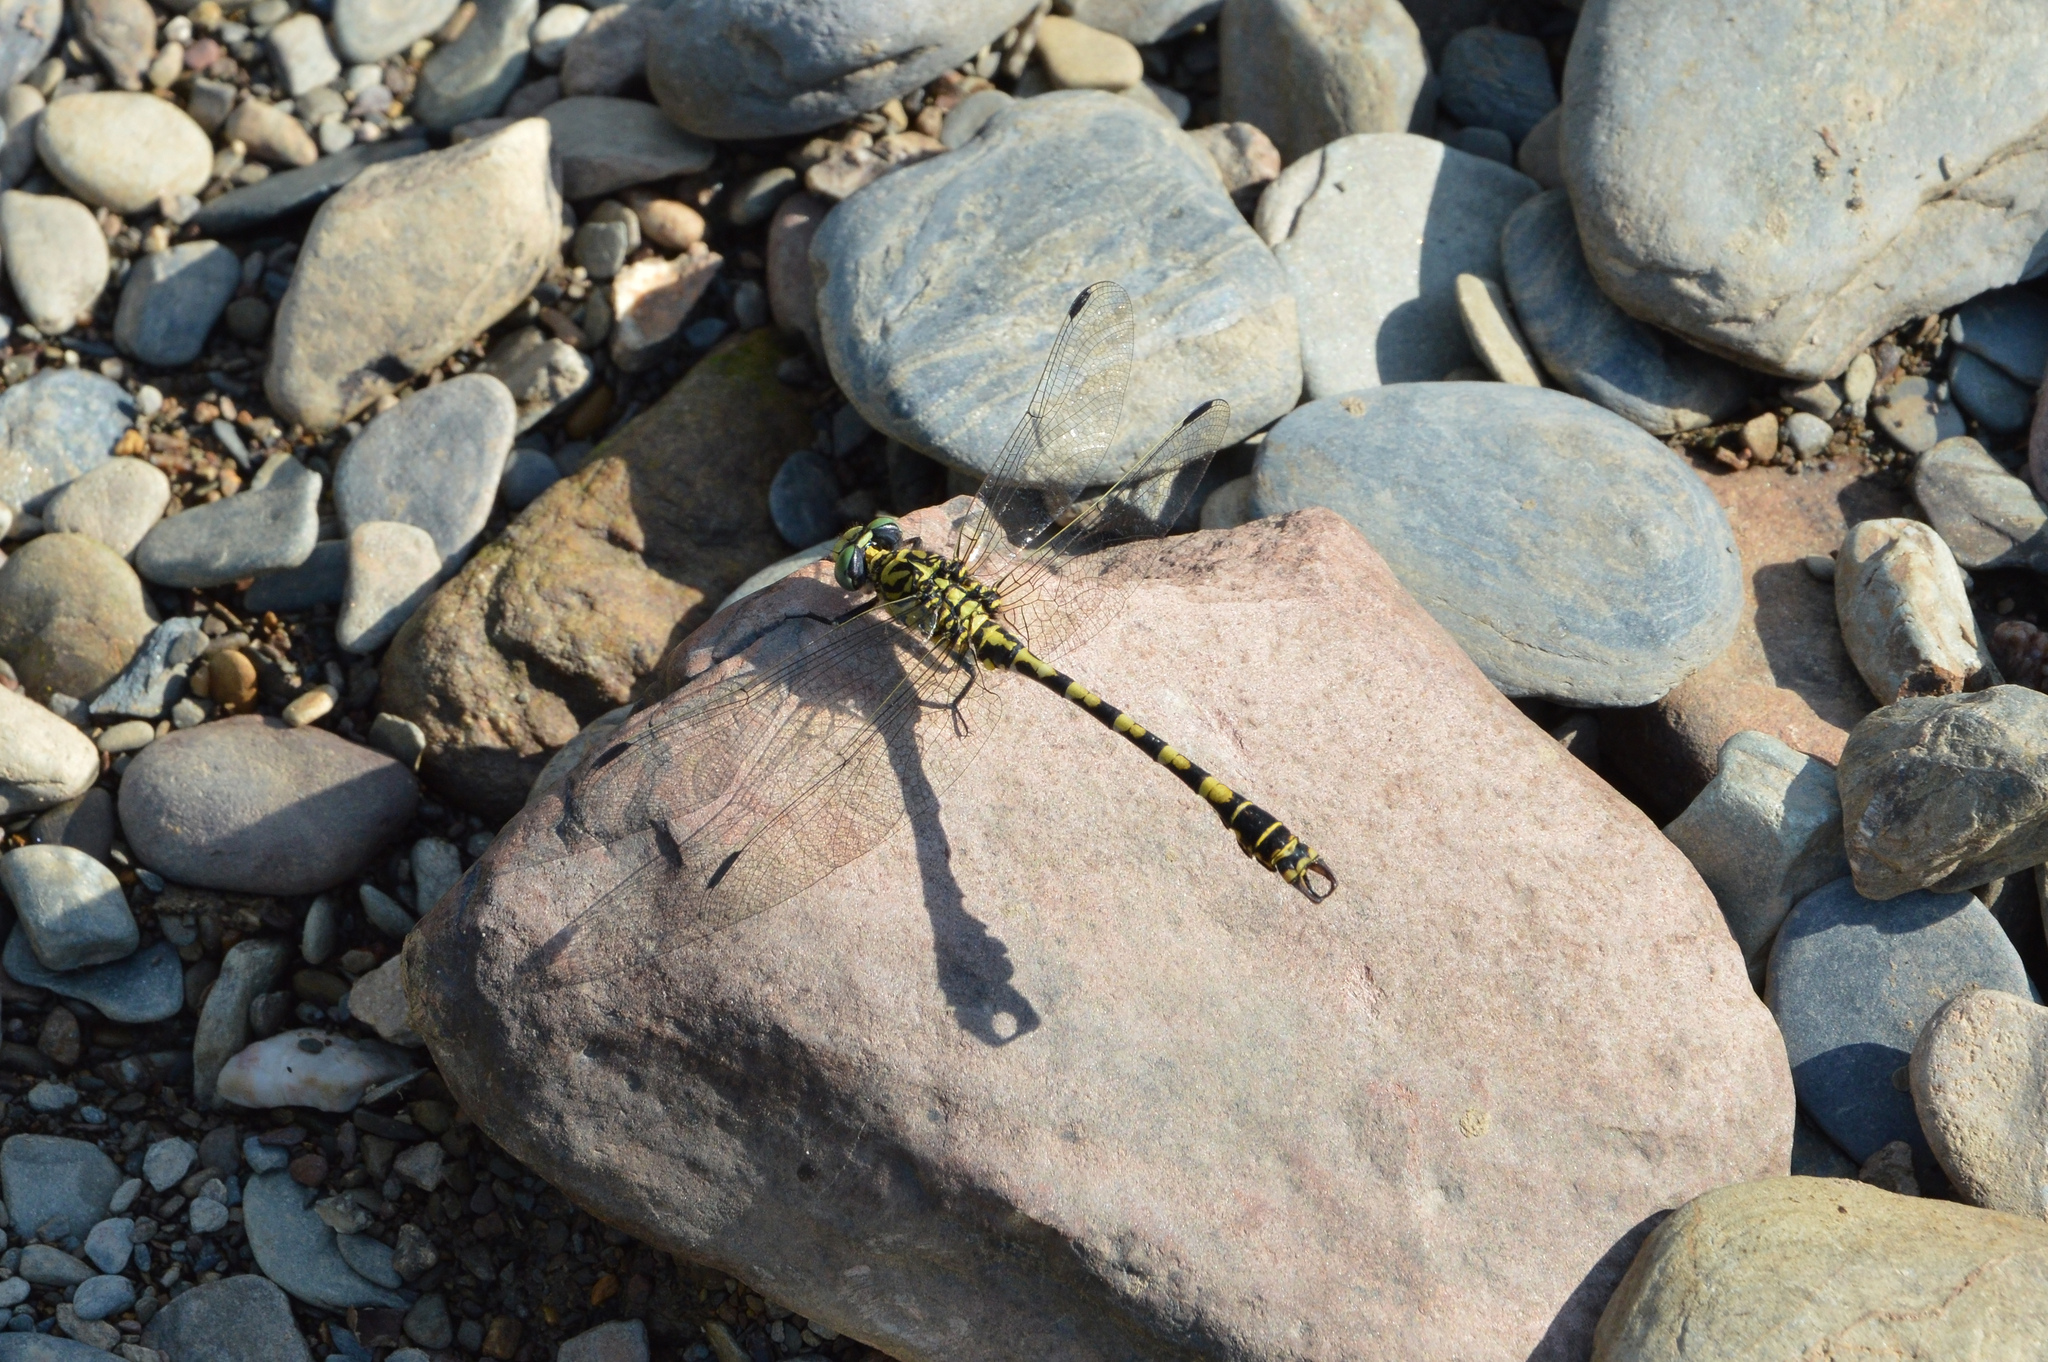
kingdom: Animalia
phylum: Arthropoda
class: Insecta
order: Odonata
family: Gomphidae
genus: Onychogomphus
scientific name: Onychogomphus forcipatus
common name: Small pincertail
